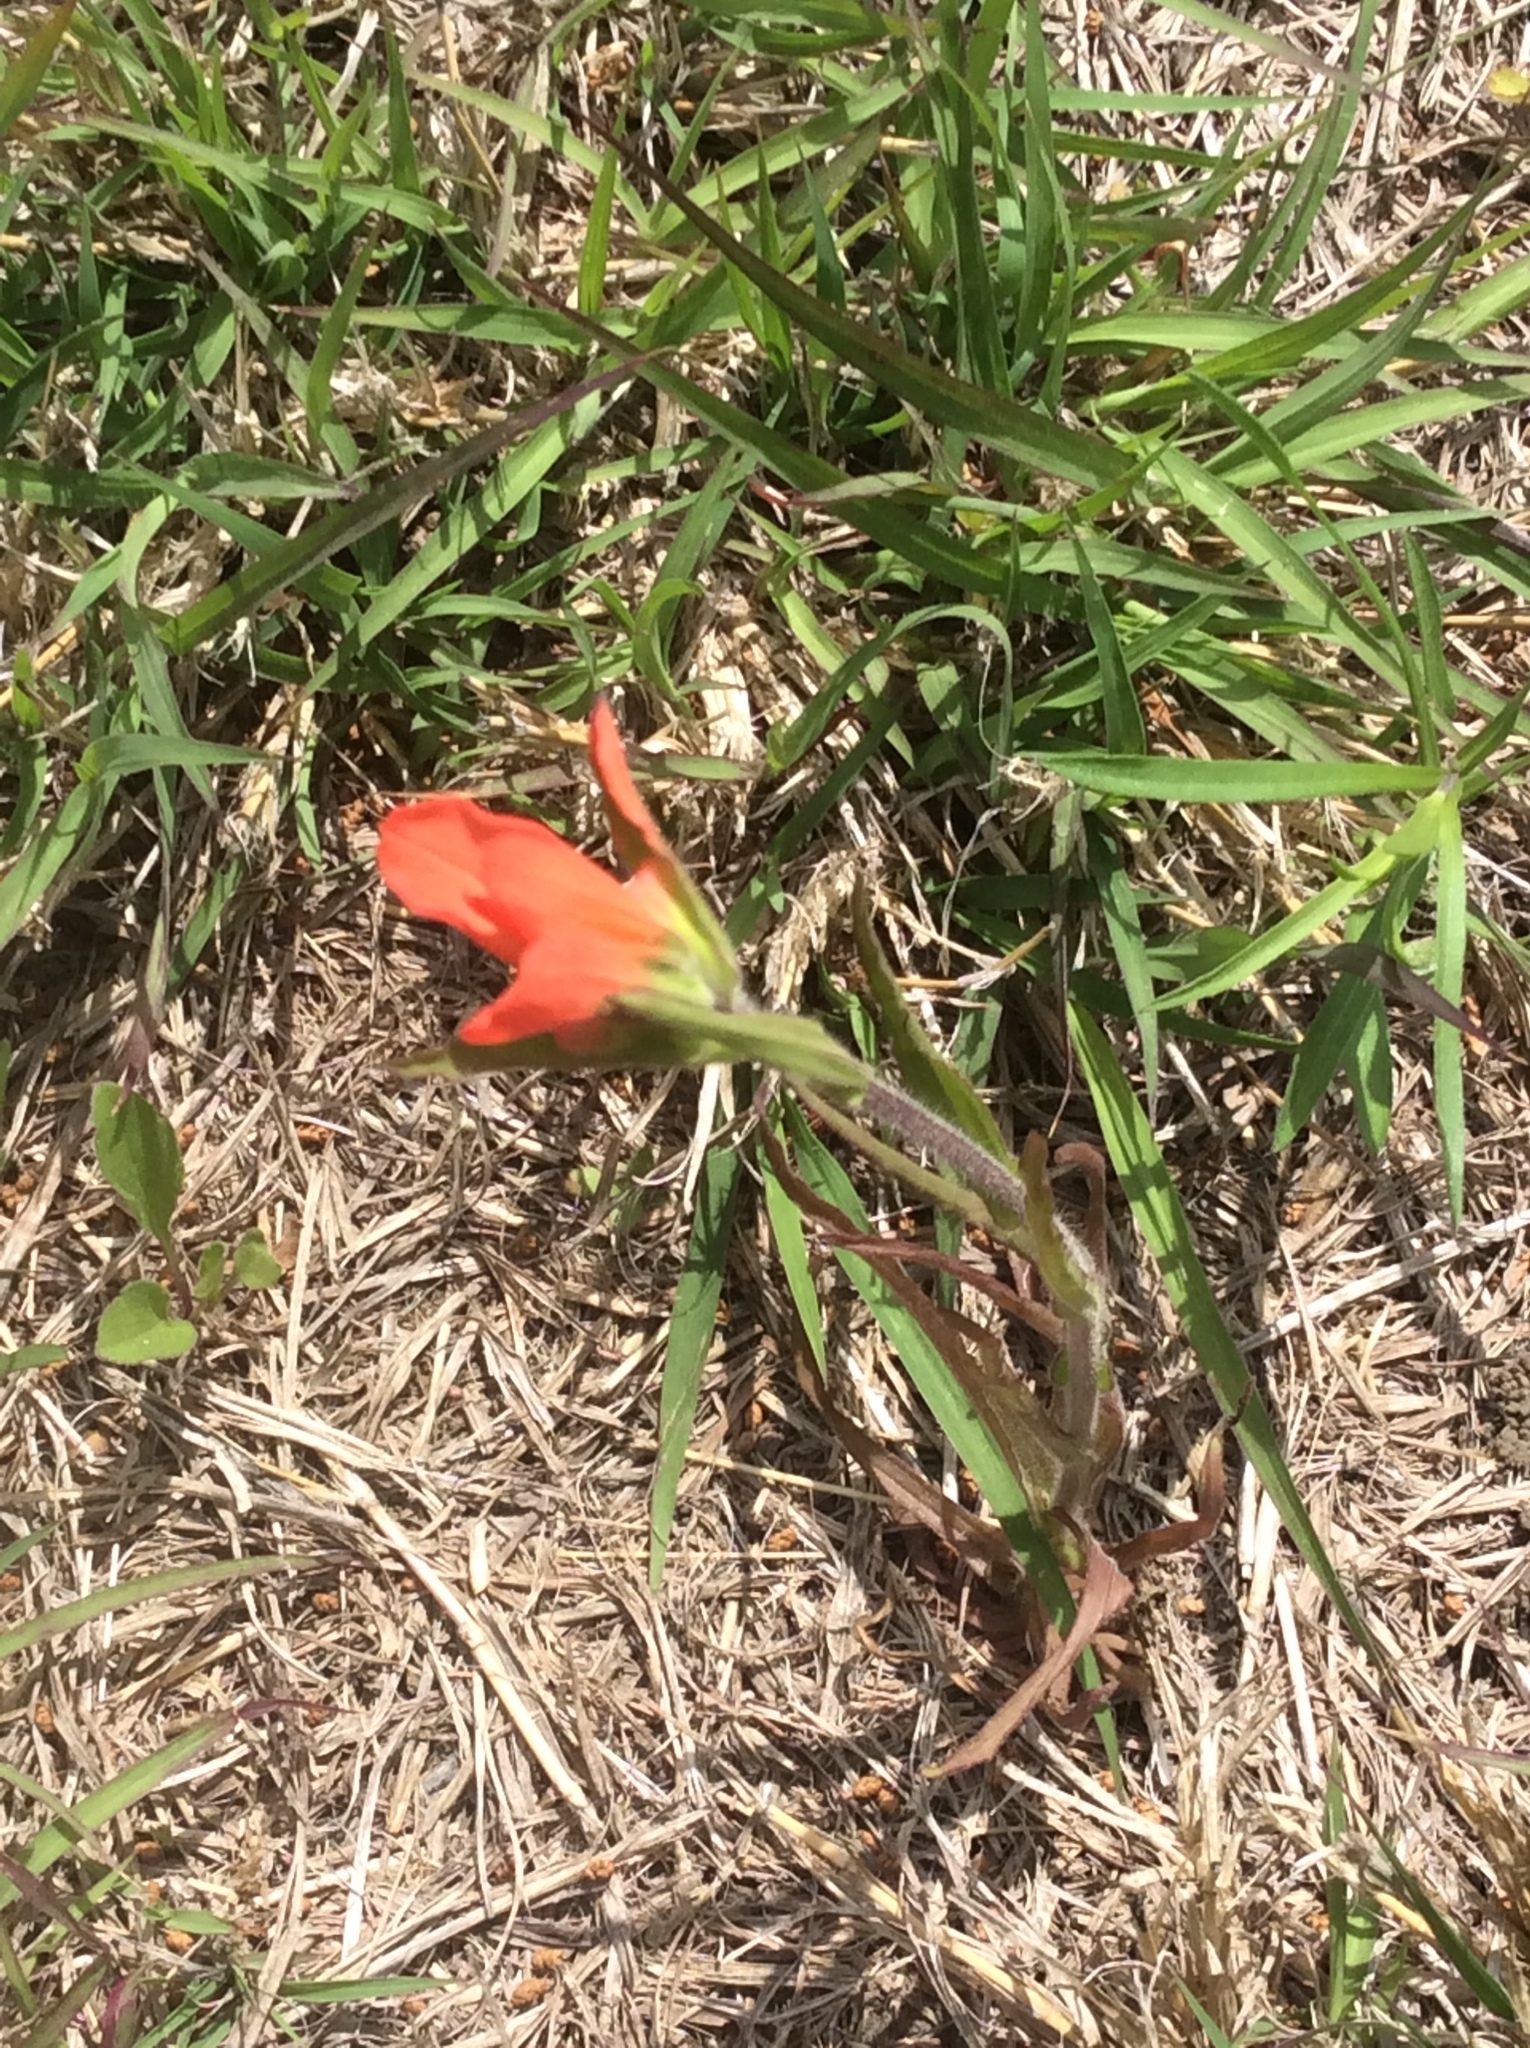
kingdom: Plantae
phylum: Tracheophyta
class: Magnoliopsida
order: Lamiales
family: Orobanchaceae
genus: Castilleja
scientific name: Castilleja indivisa
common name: Texas paintbrush
